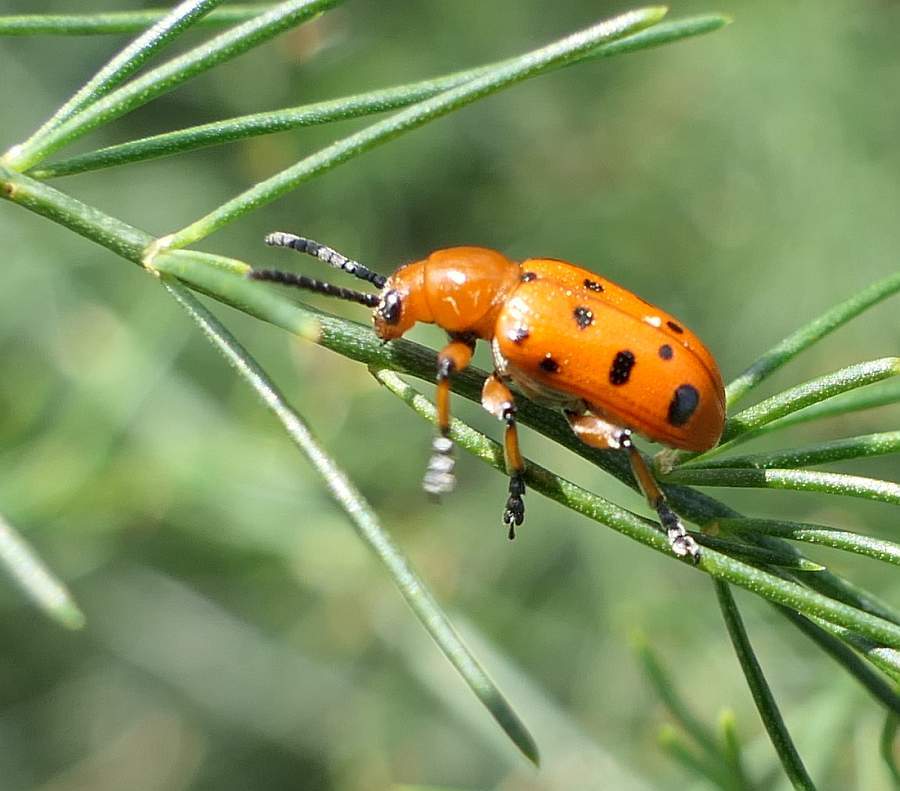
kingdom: Animalia
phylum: Arthropoda
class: Insecta
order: Coleoptera
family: Chrysomelidae
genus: Crioceris
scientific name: Crioceris duodecimpunctata
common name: Twelve-spotted asparagus beetle
